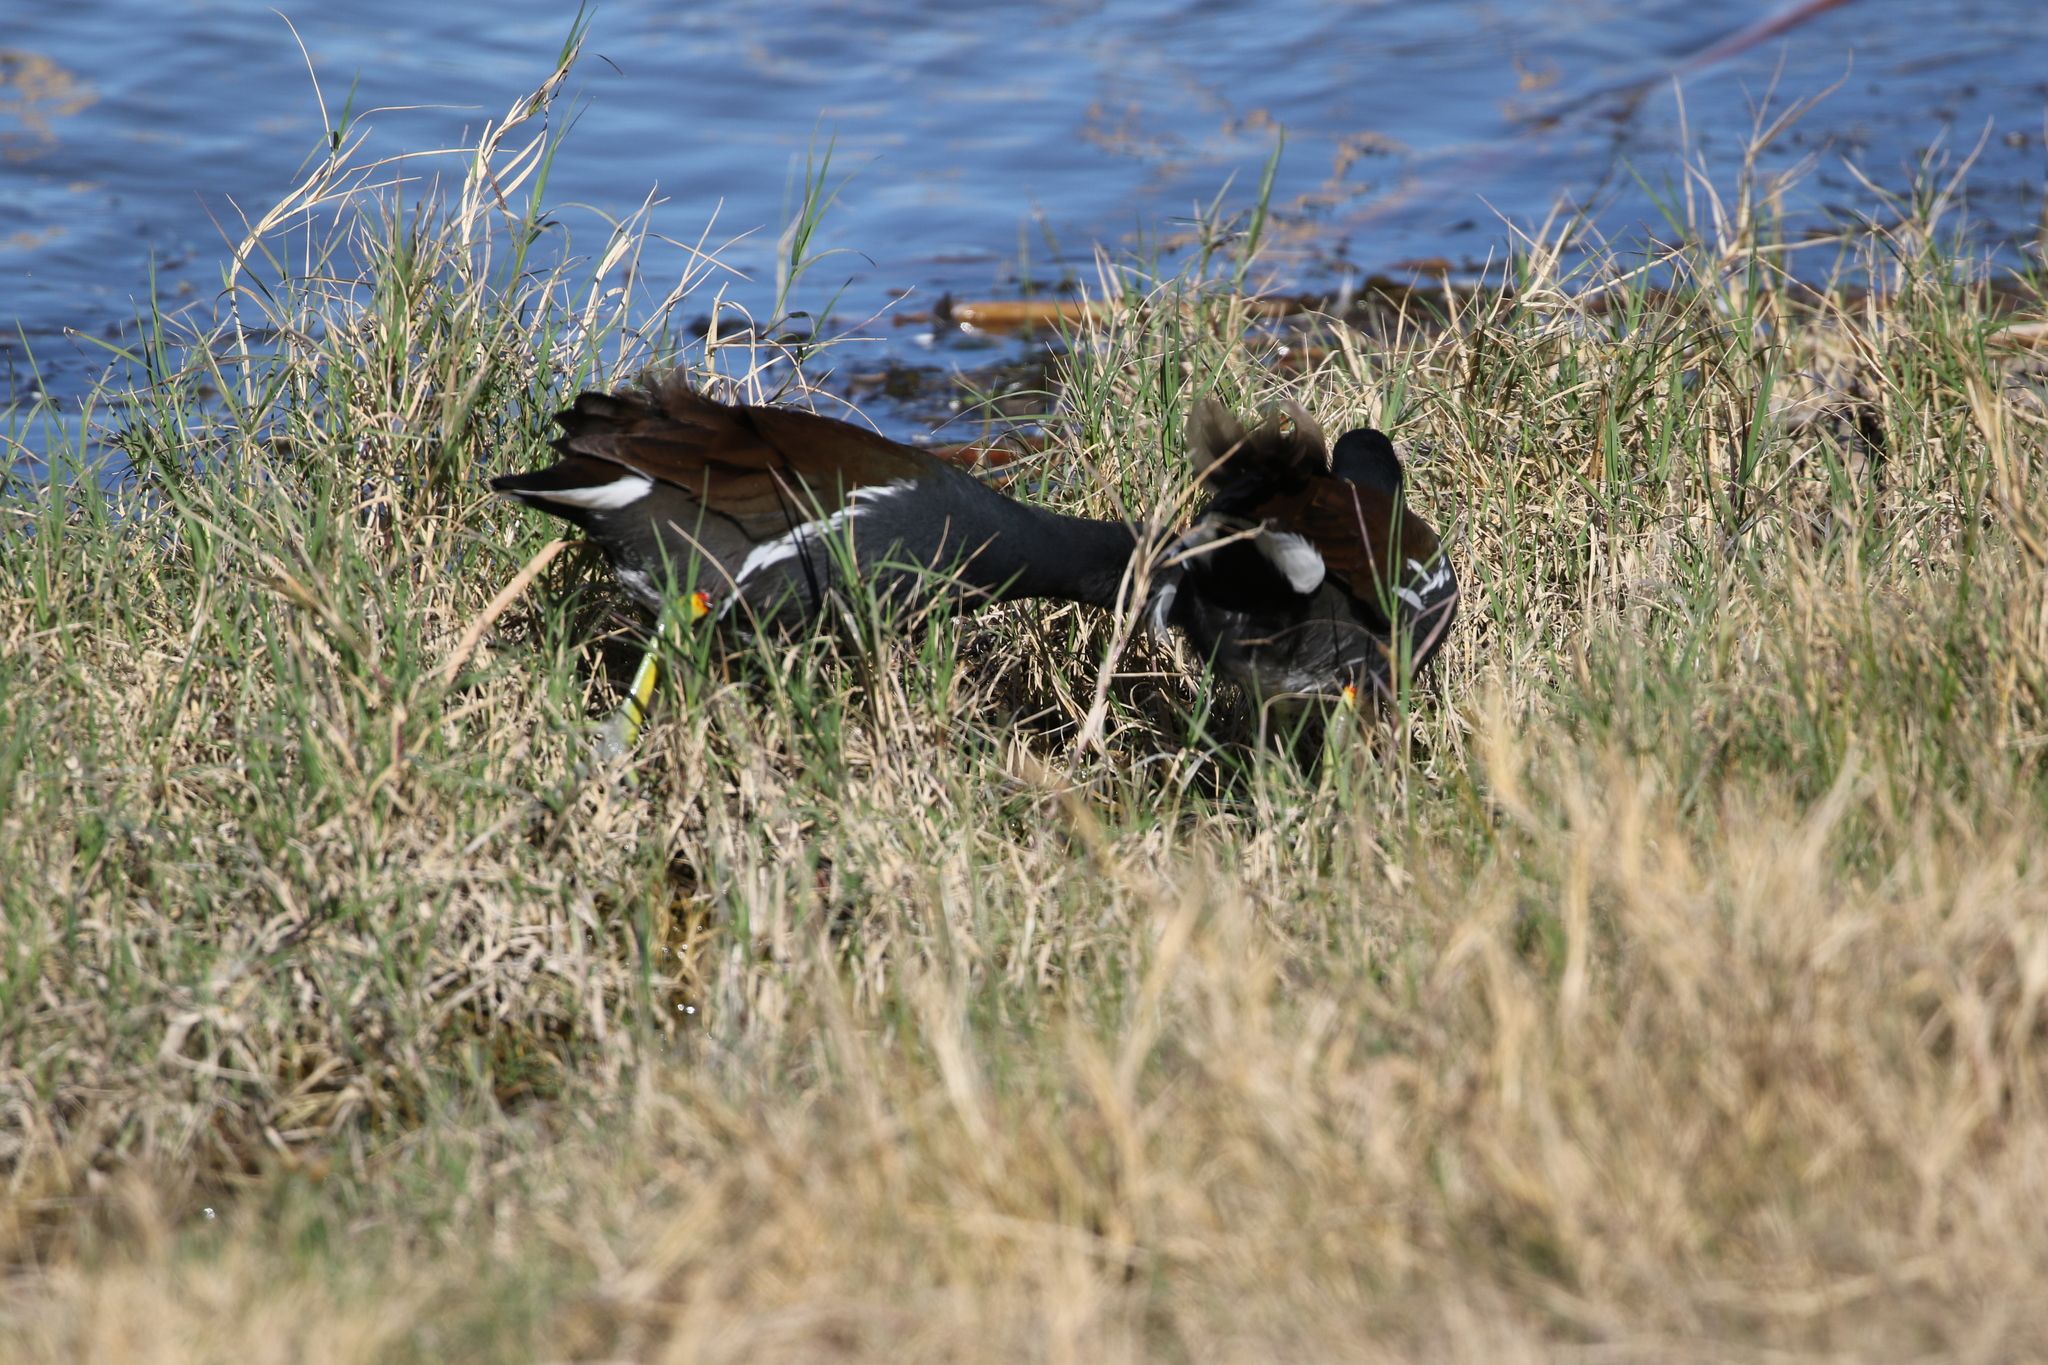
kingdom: Animalia
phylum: Chordata
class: Aves
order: Gruiformes
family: Rallidae
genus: Gallinula
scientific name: Gallinula chloropus
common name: Common moorhen
